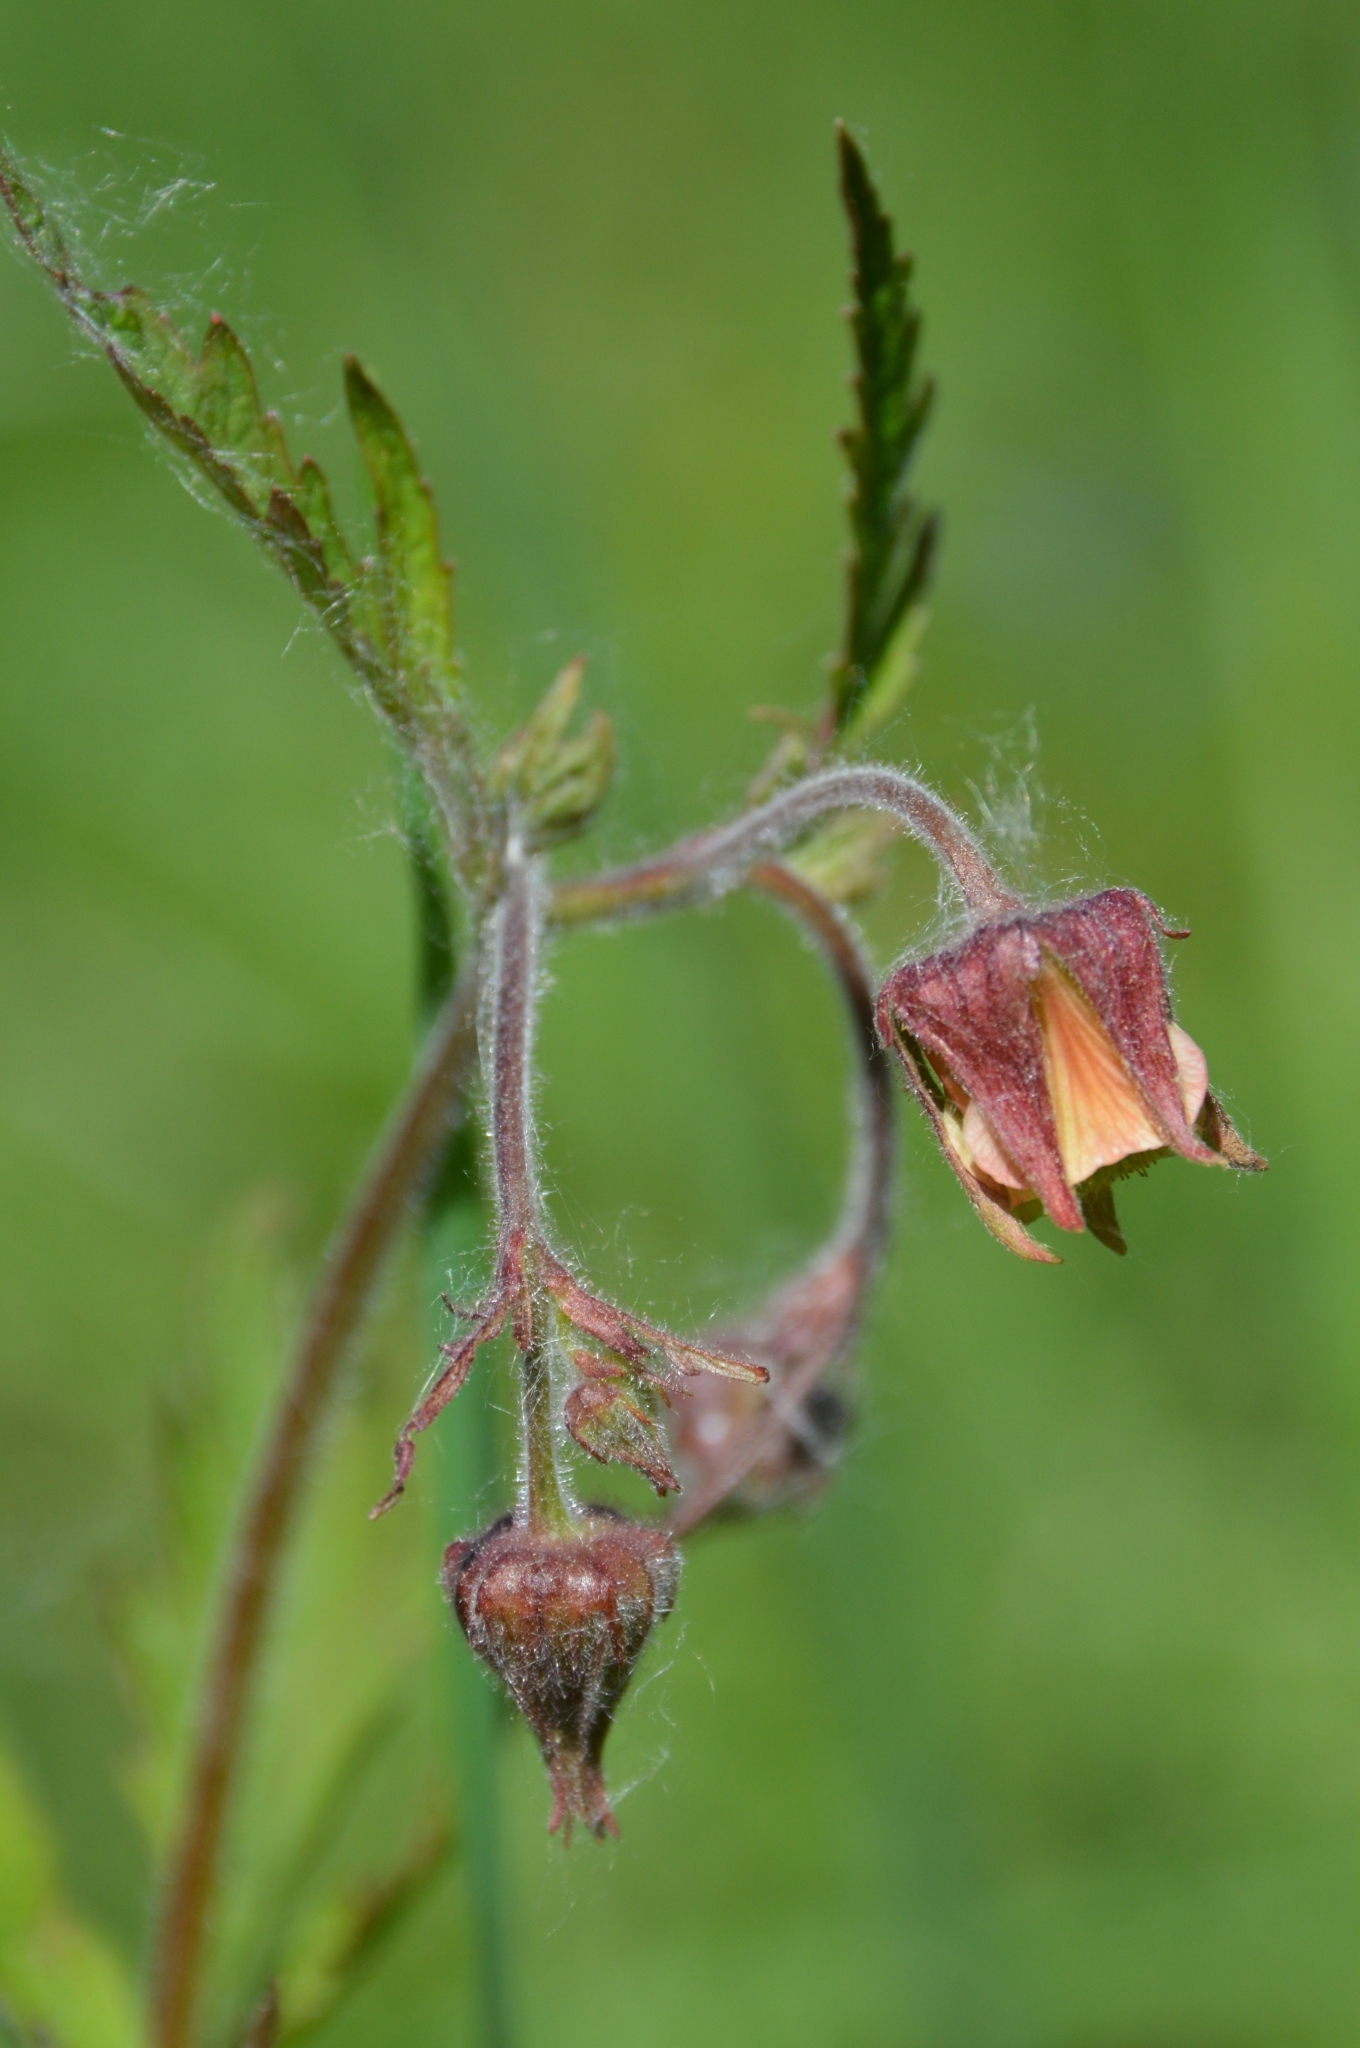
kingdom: Plantae
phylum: Tracheophyta
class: Magnoliopsida
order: Rosales
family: Rosaceae
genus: Geum
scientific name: Geum rivale
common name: Water avens
